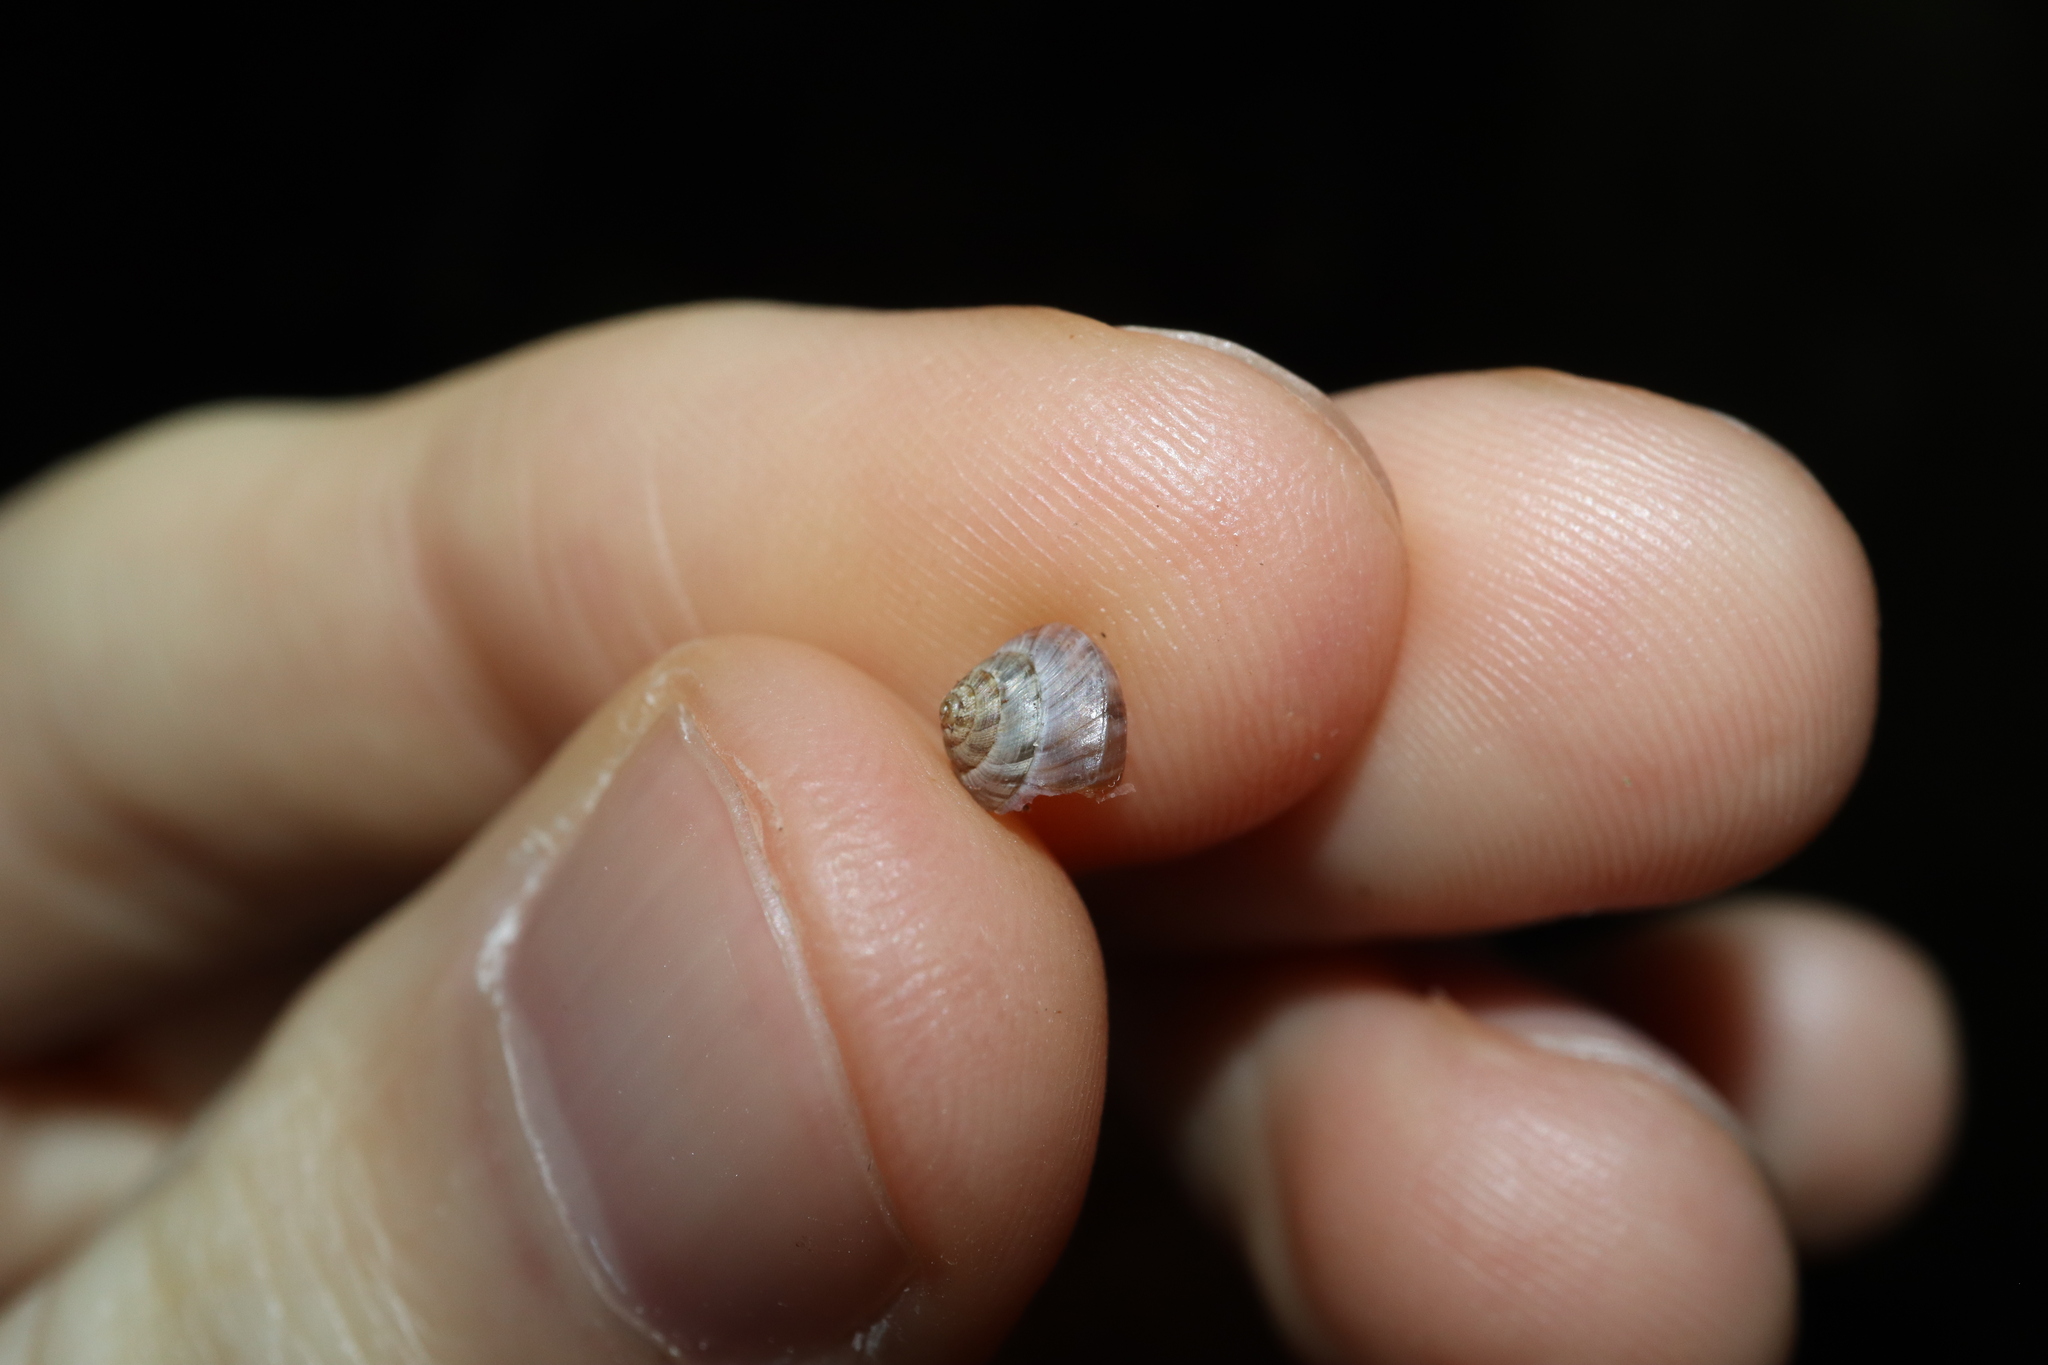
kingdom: Animalia
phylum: Mollusca
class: Gastropoda
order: Stylommatophora
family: Charopidae
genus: Hedleyoconcha
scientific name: Hedleyoconcha delta
